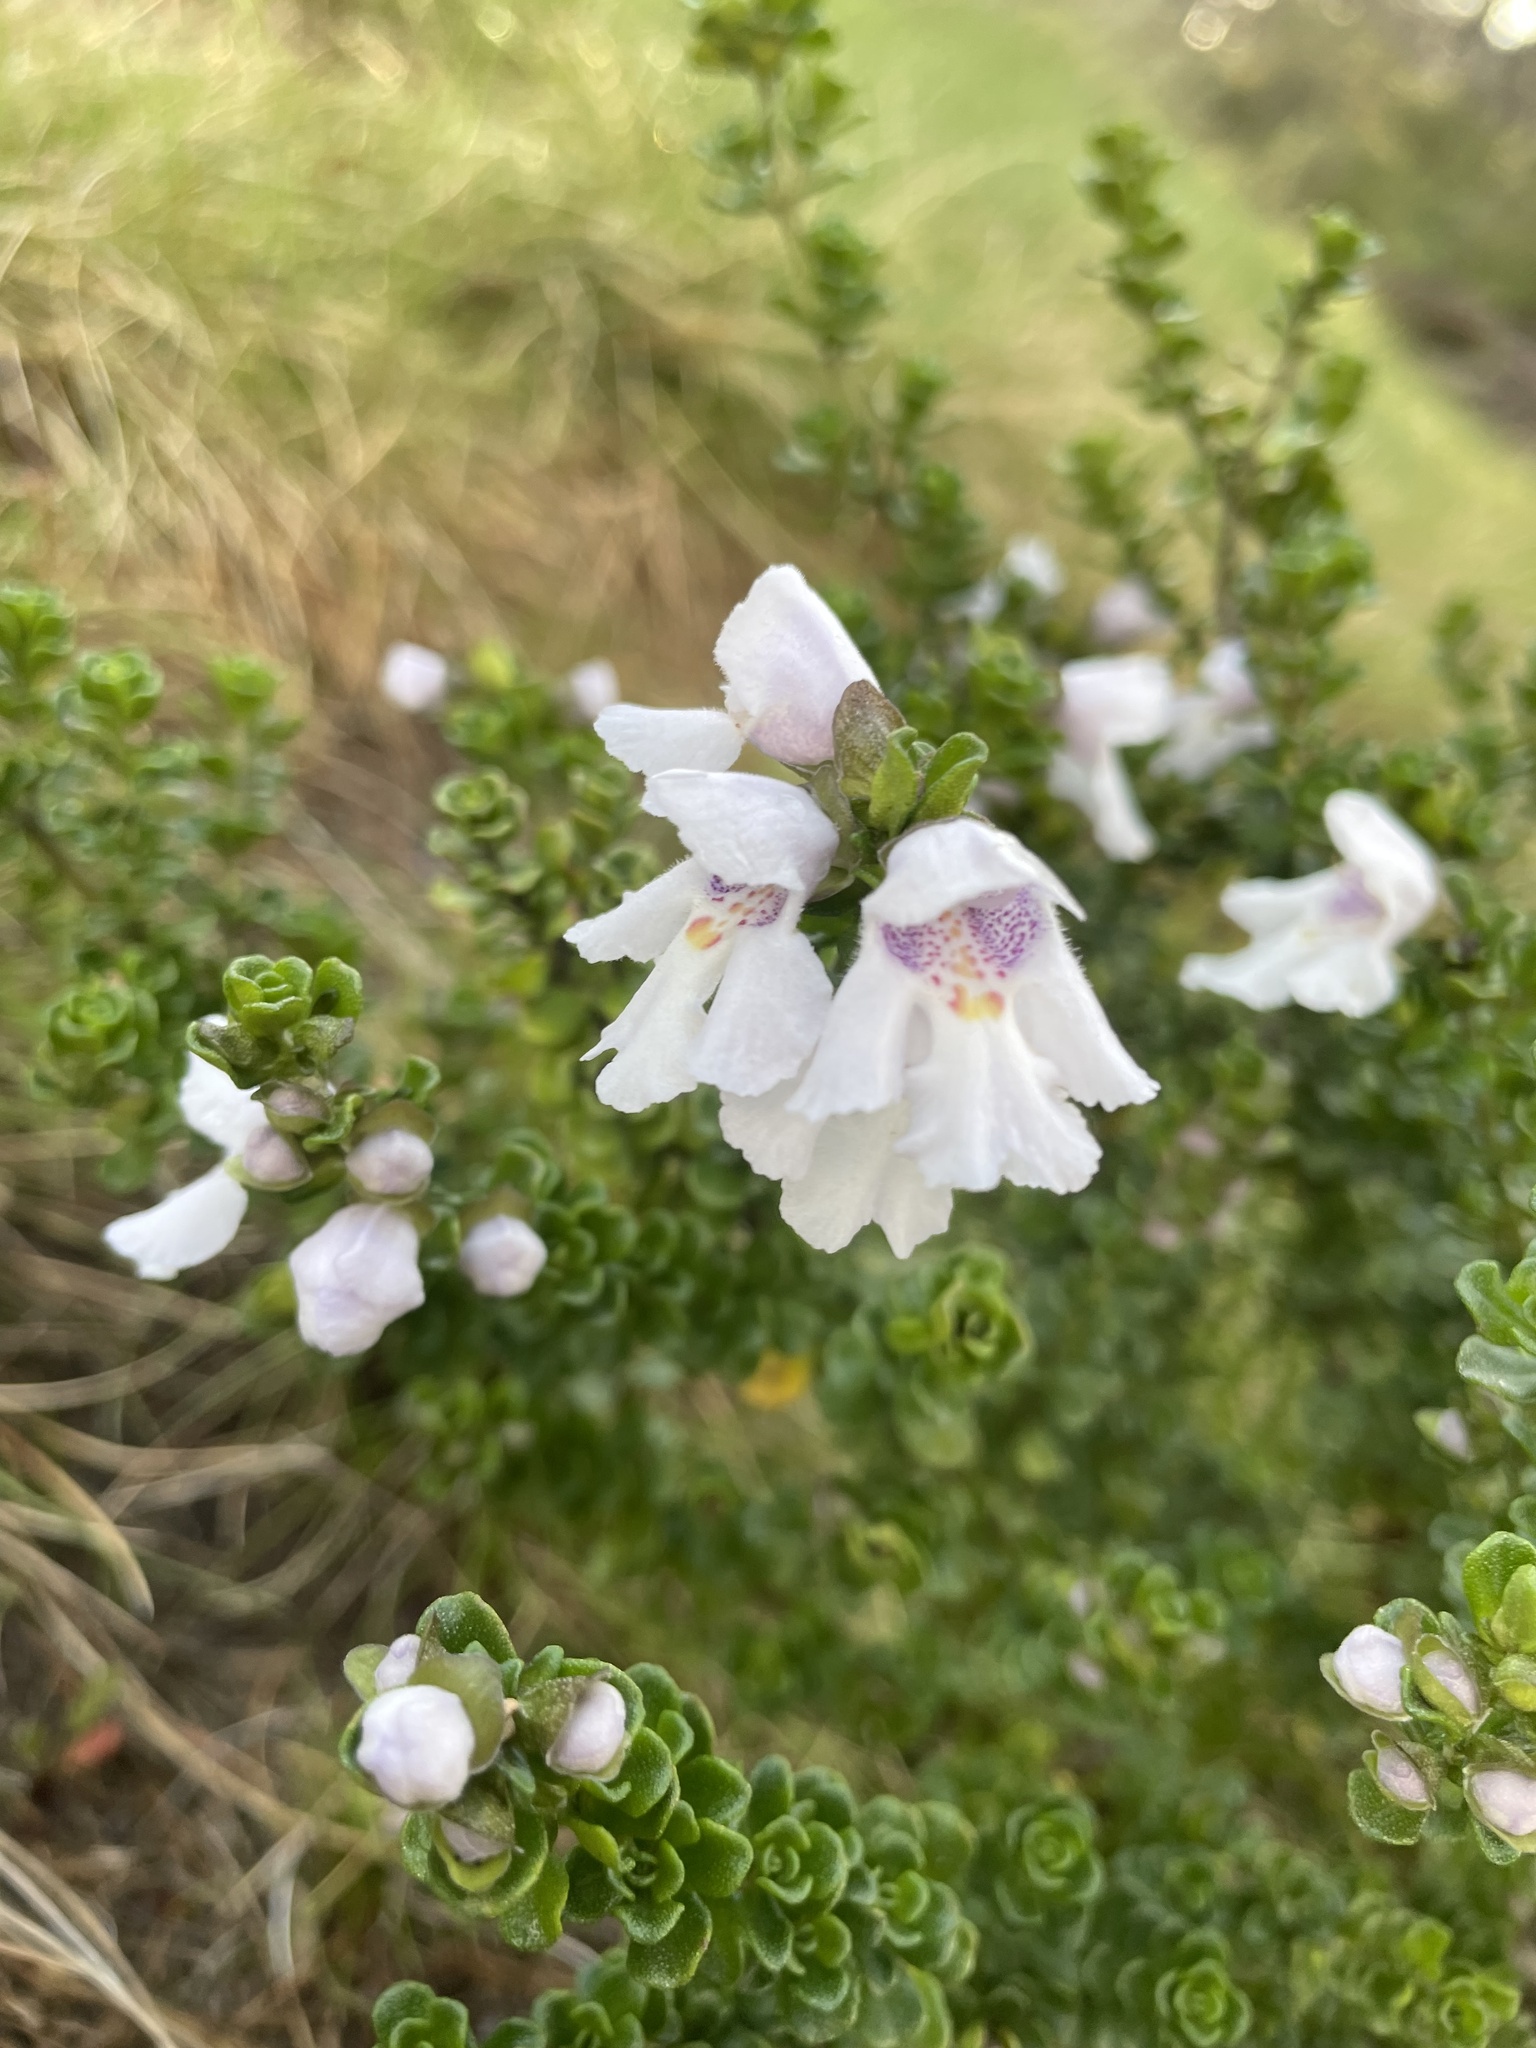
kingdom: Plantae
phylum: Tracheophyta
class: Magnoliopsida
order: Lamiales
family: Lamiaceae
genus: Prostanthera
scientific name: Prostanthera cuneata
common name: Alpine mintbush
